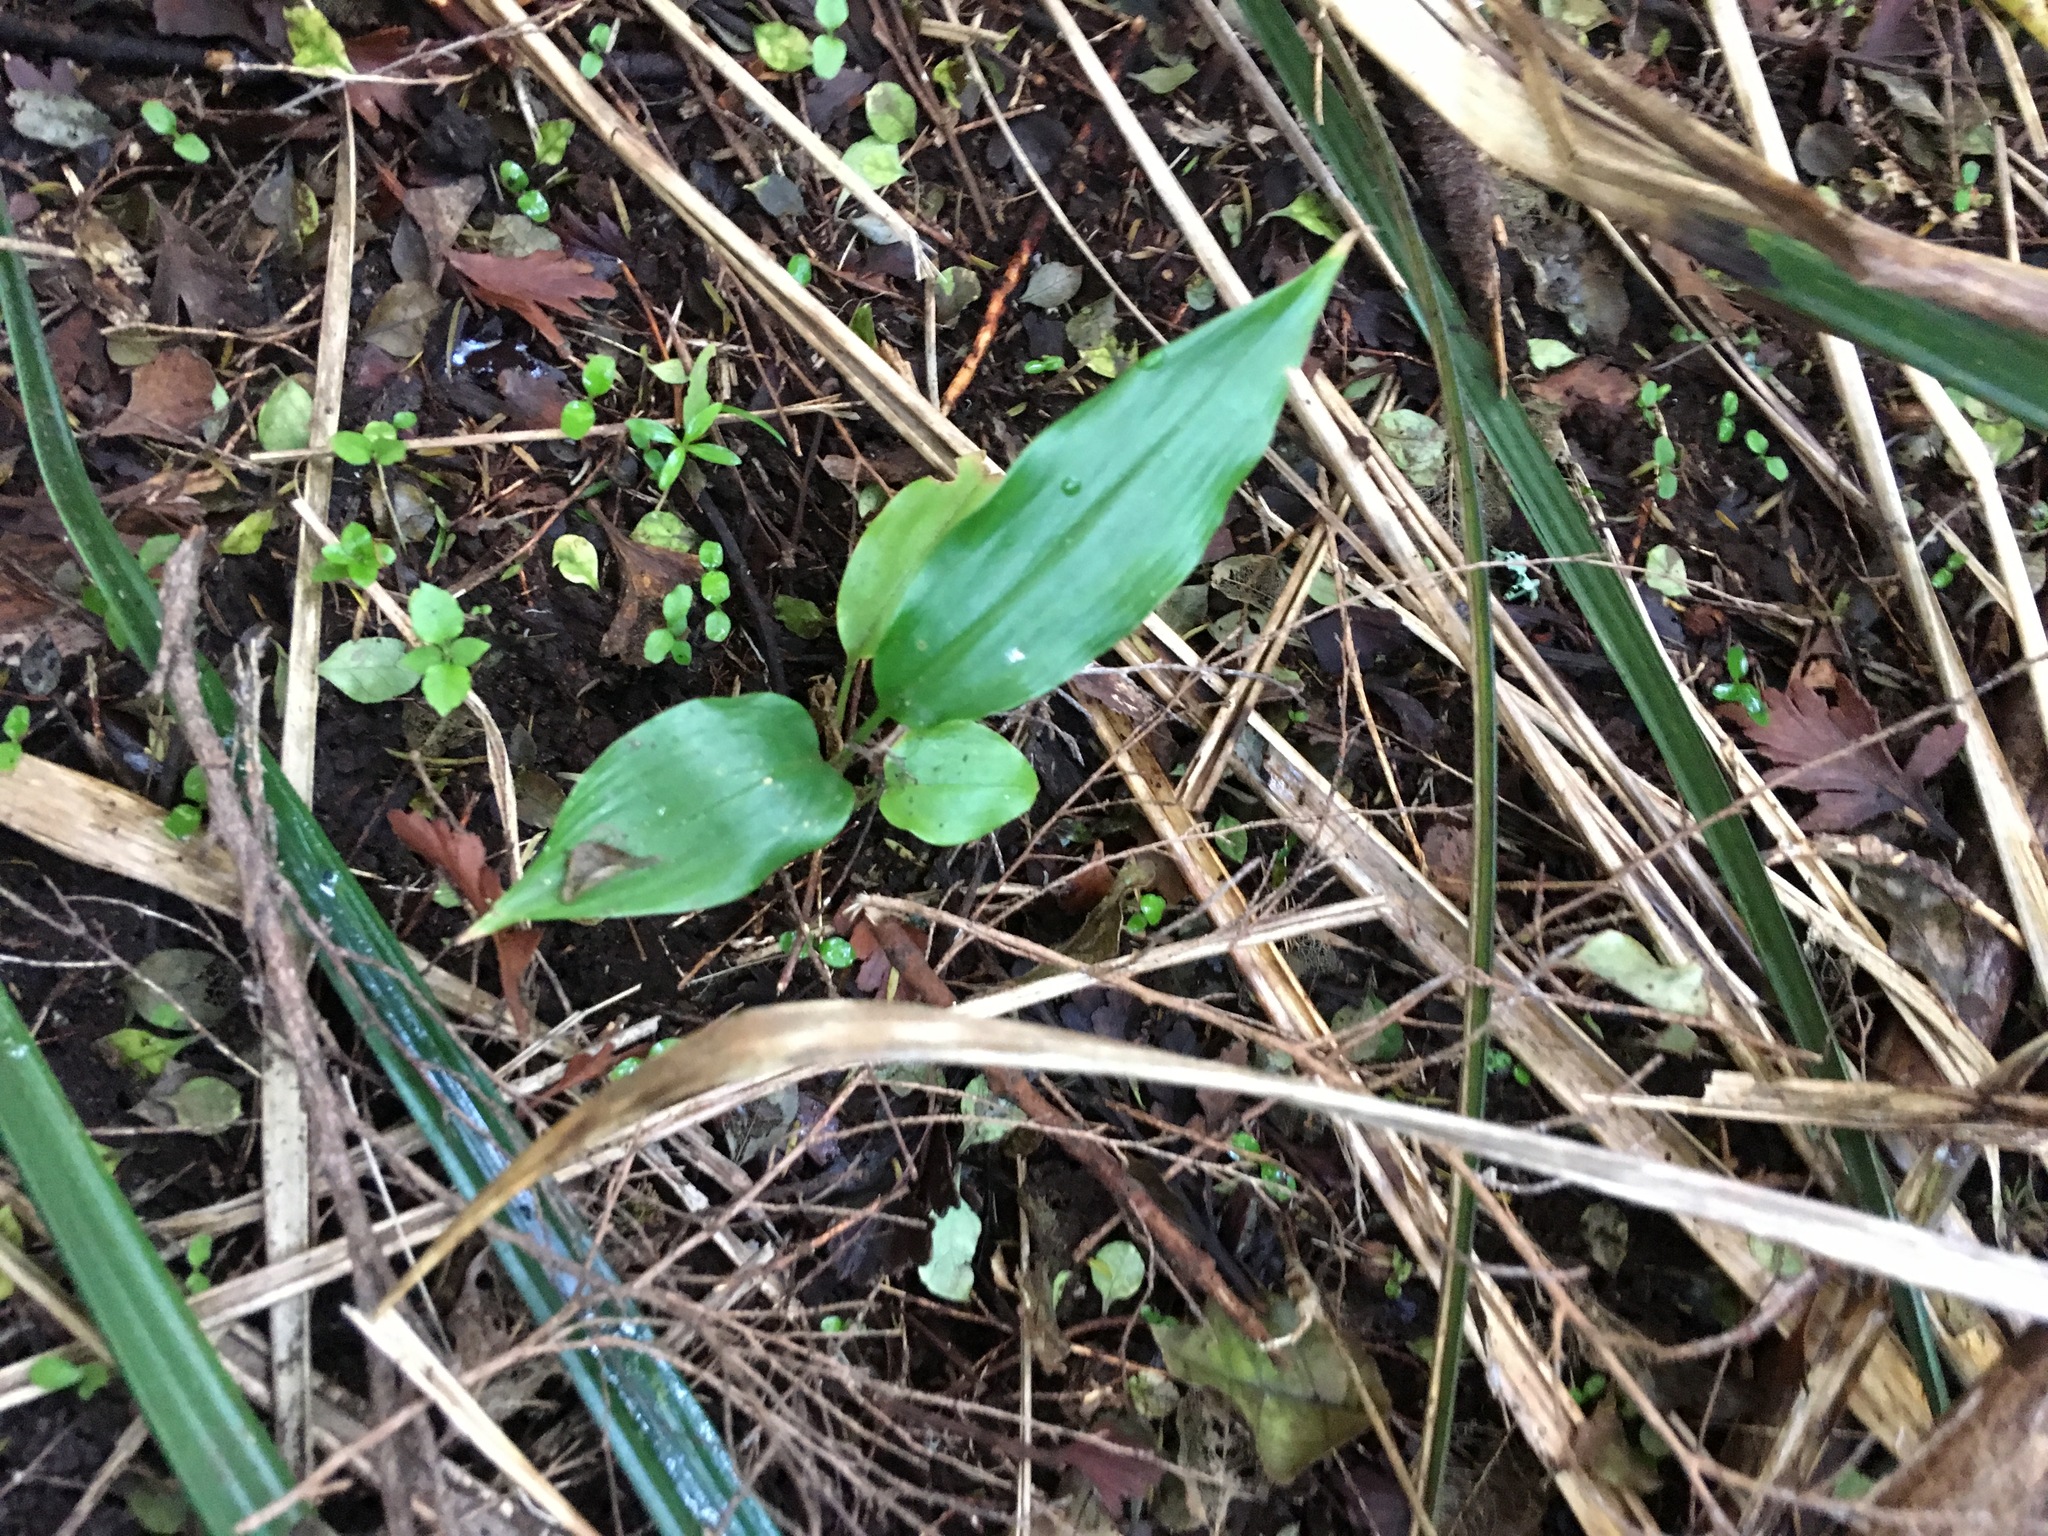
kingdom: Plantae
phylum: Tracheophyta
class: Liliopsida
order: Zingiberales
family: Zingiberaceae
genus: Hedychium
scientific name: Hedychium gardnerianum
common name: Himalayan ginger
